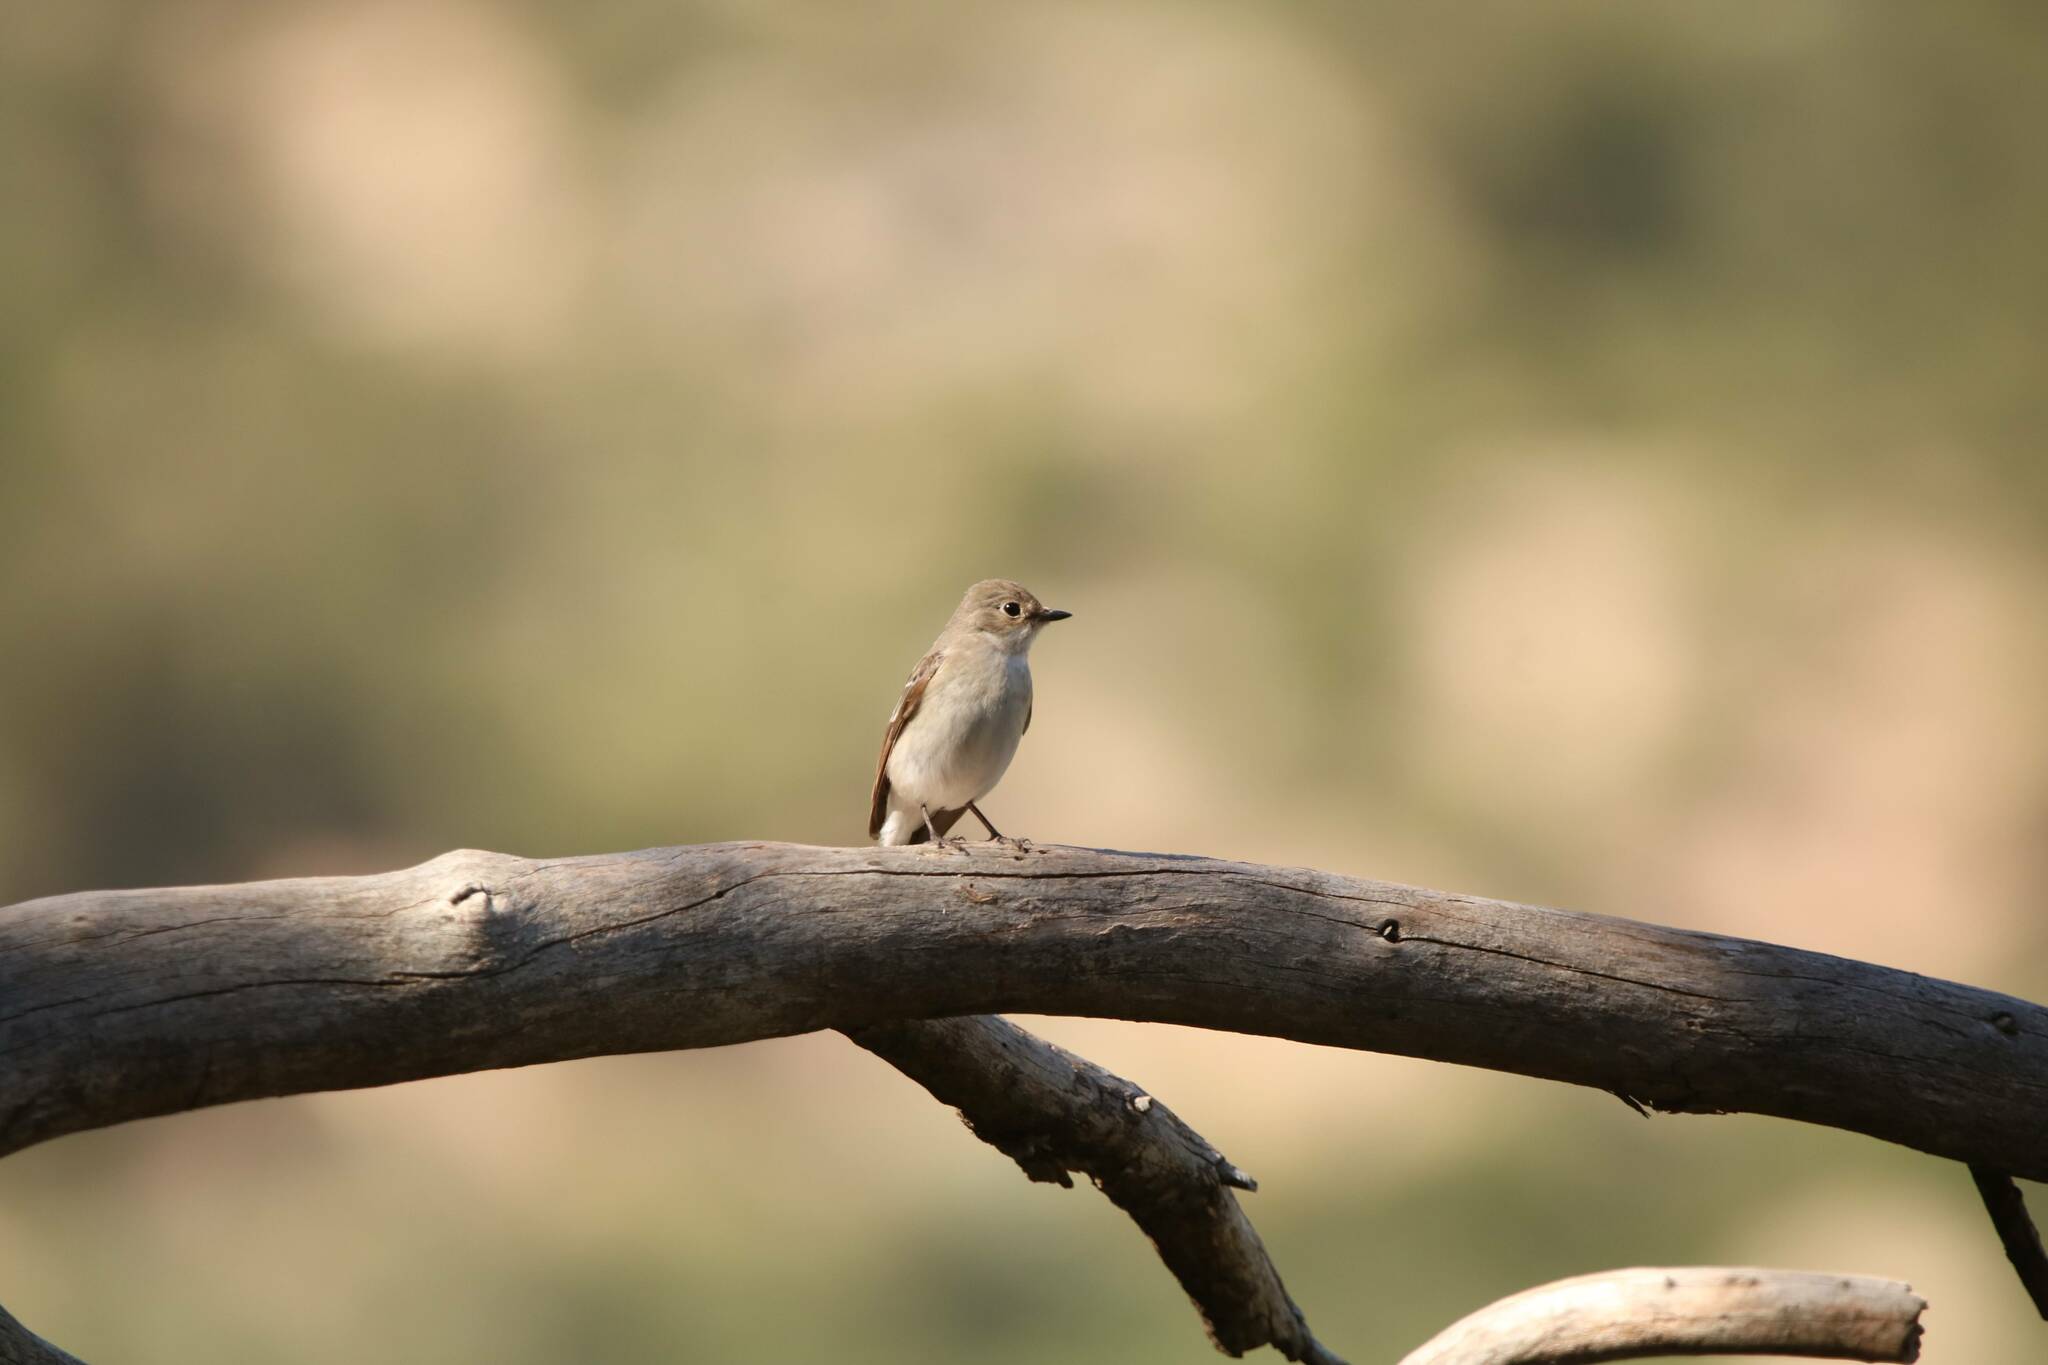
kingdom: Animalia
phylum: Chordata
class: Aves
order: Passeriformes
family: Muscicapidae
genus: Ficedula
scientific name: Ficedula speculigera
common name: Atlas pied flycatcher
